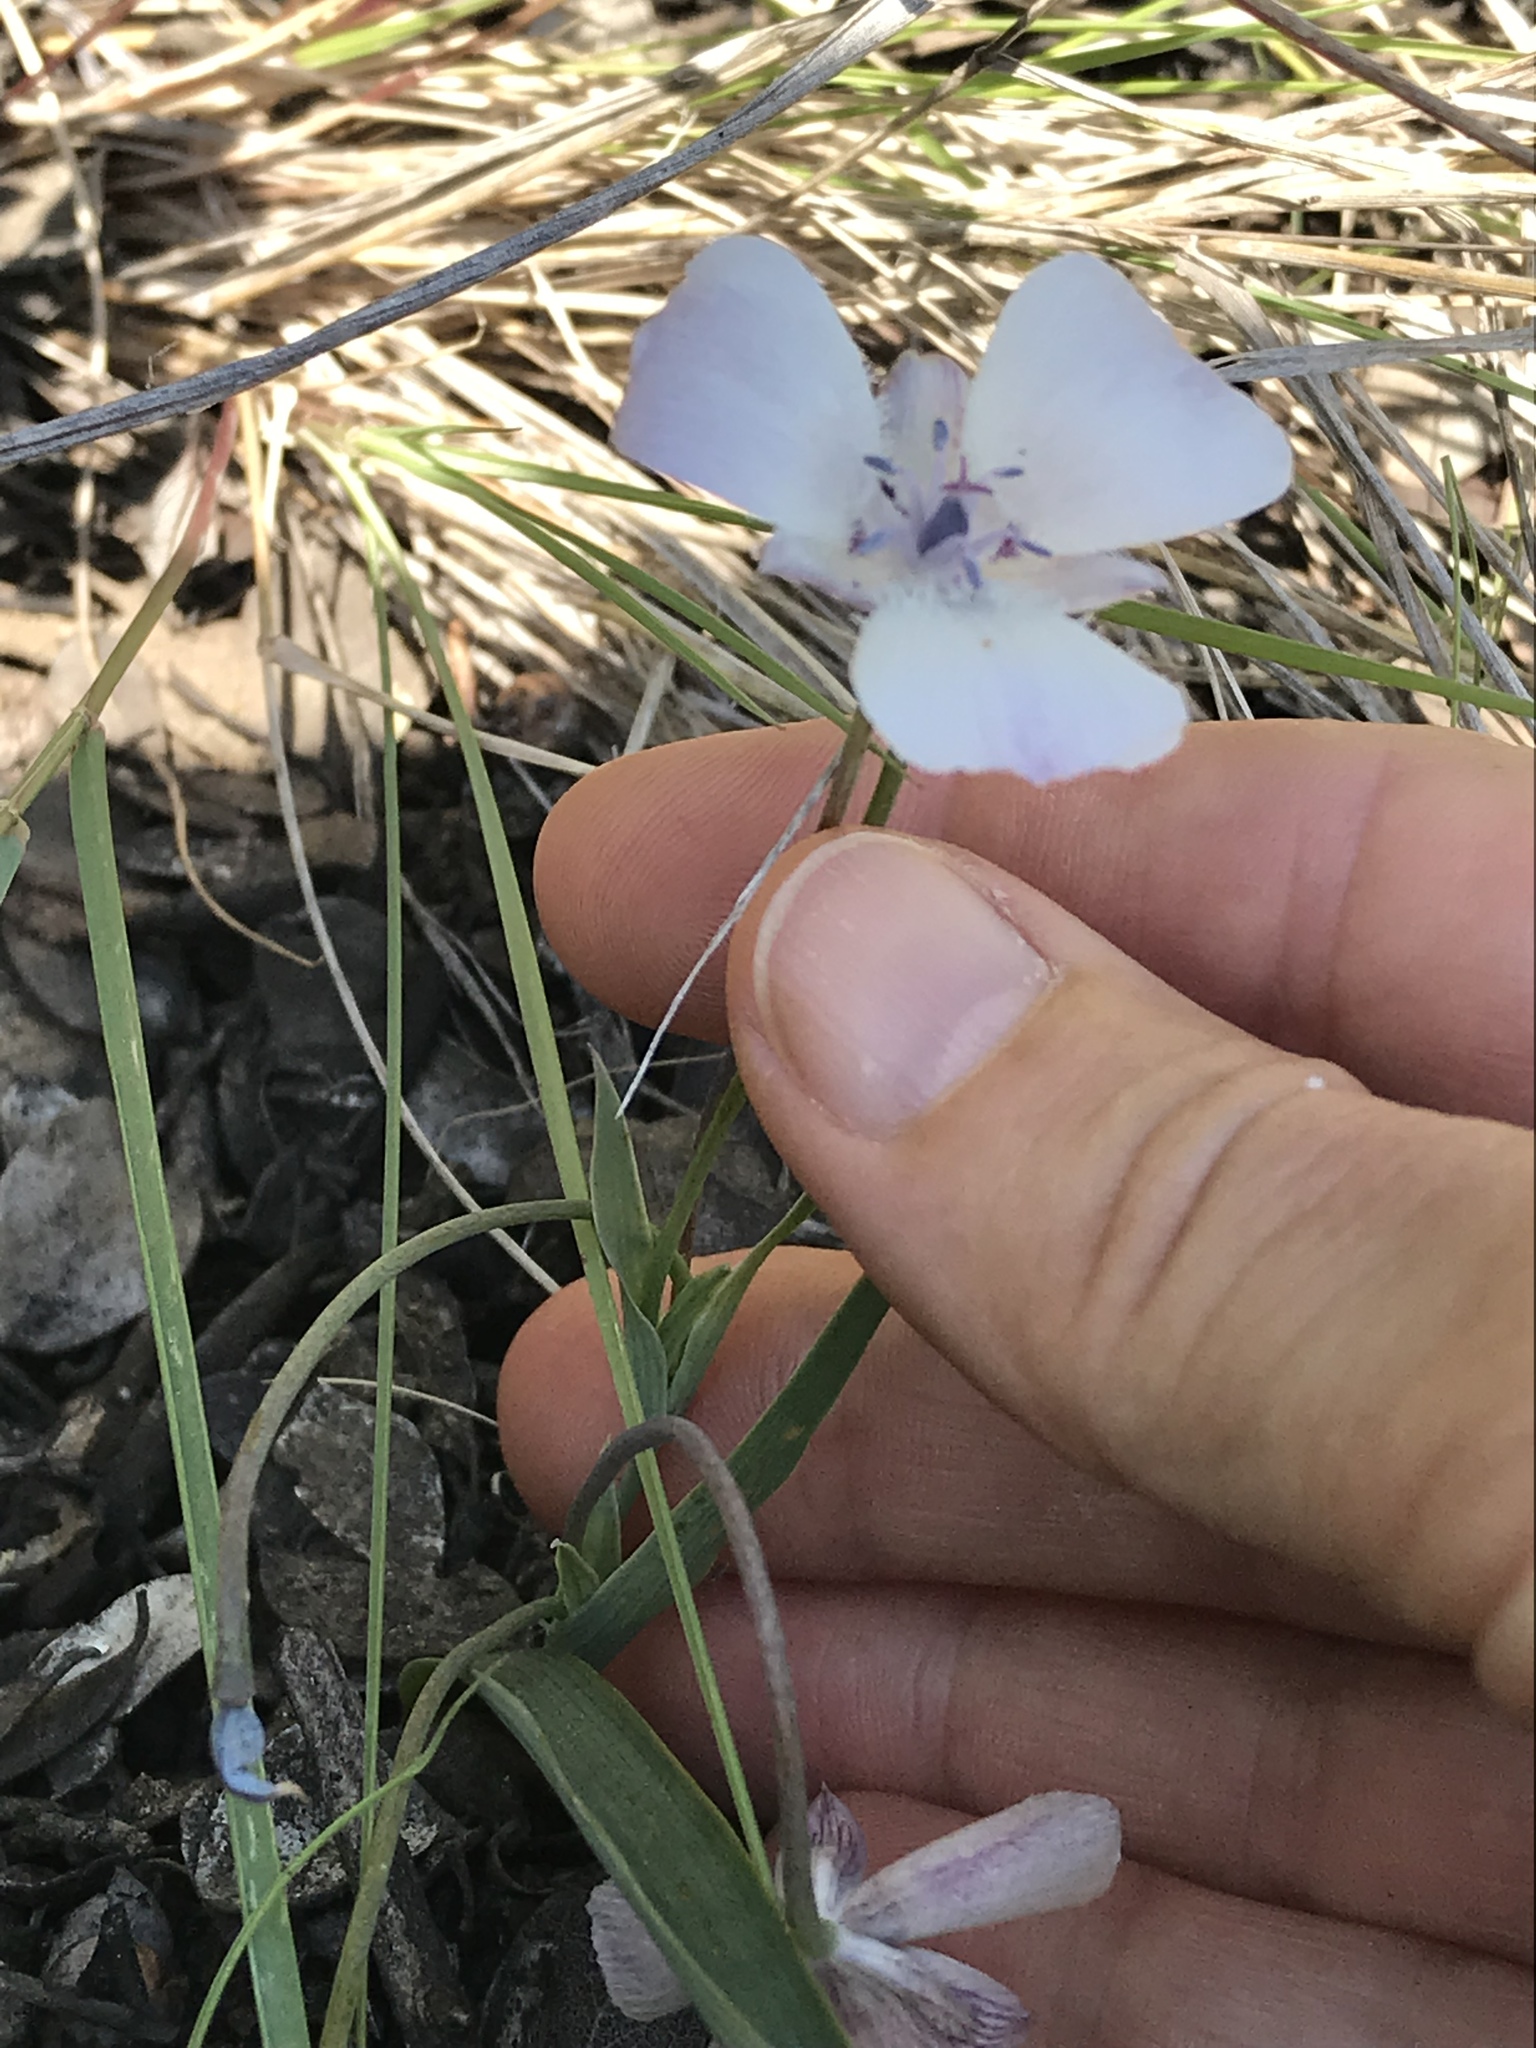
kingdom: Plantae
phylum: Tracheophyta
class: Liliopsida
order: Liliales
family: Liliaceae
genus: Calochortus
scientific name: Calochortus umbellatus
